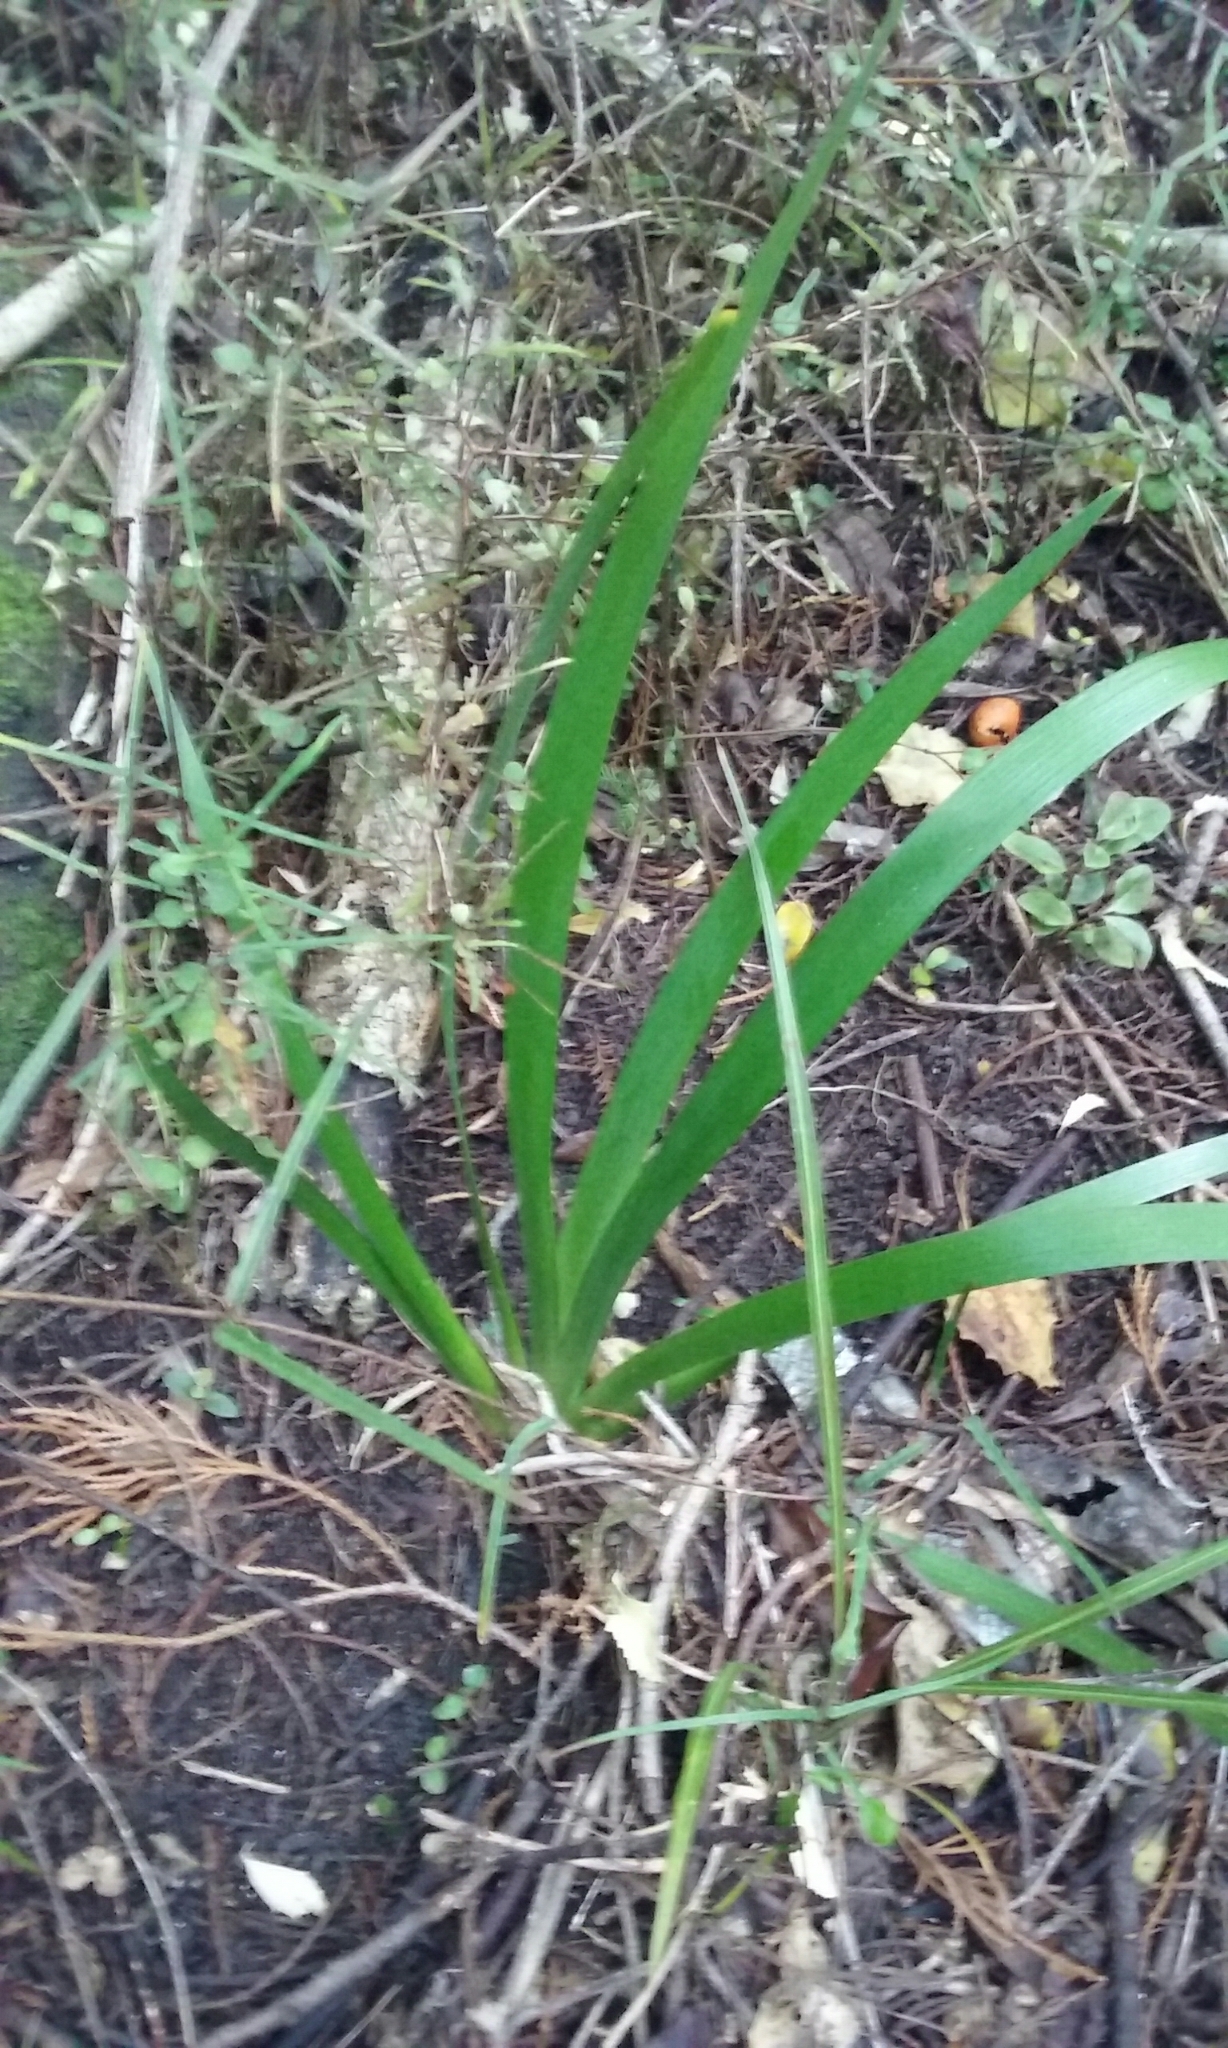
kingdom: Plantae
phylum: Tracheophyta
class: Liliopsida
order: Asparagales
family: Iridaceae
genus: Iris
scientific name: Iris foetidissima
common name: Stinking iris
